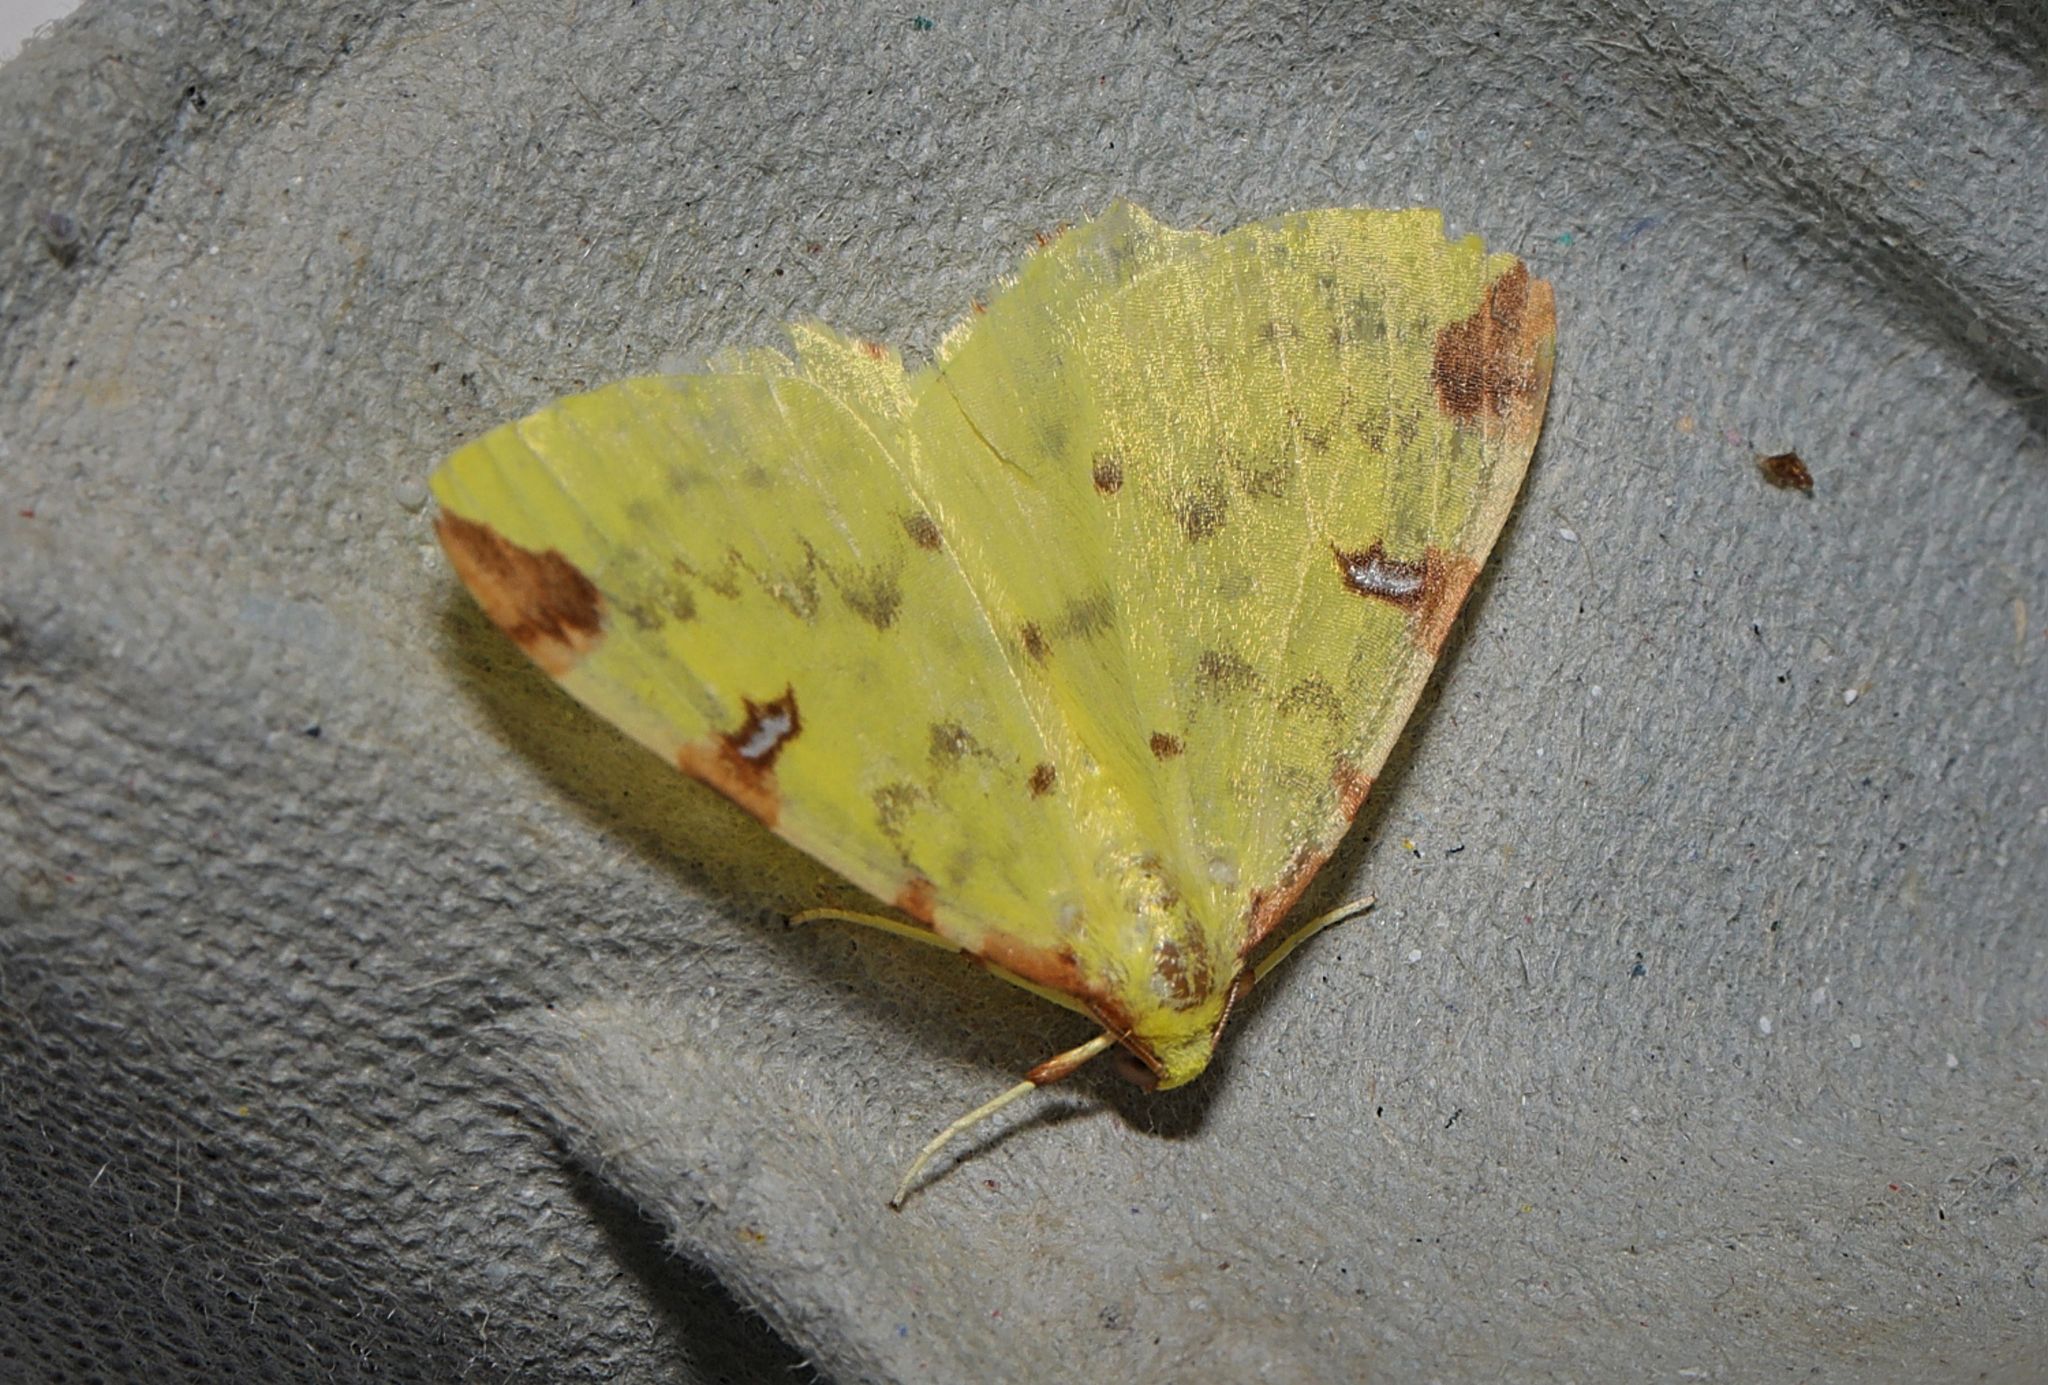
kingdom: Animalia
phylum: Arthropoda
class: Insecta
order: Lepidoptera
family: Geometridae
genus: Opisthograptis
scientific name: Opisthograptis luteolata
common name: Brimstone moth
